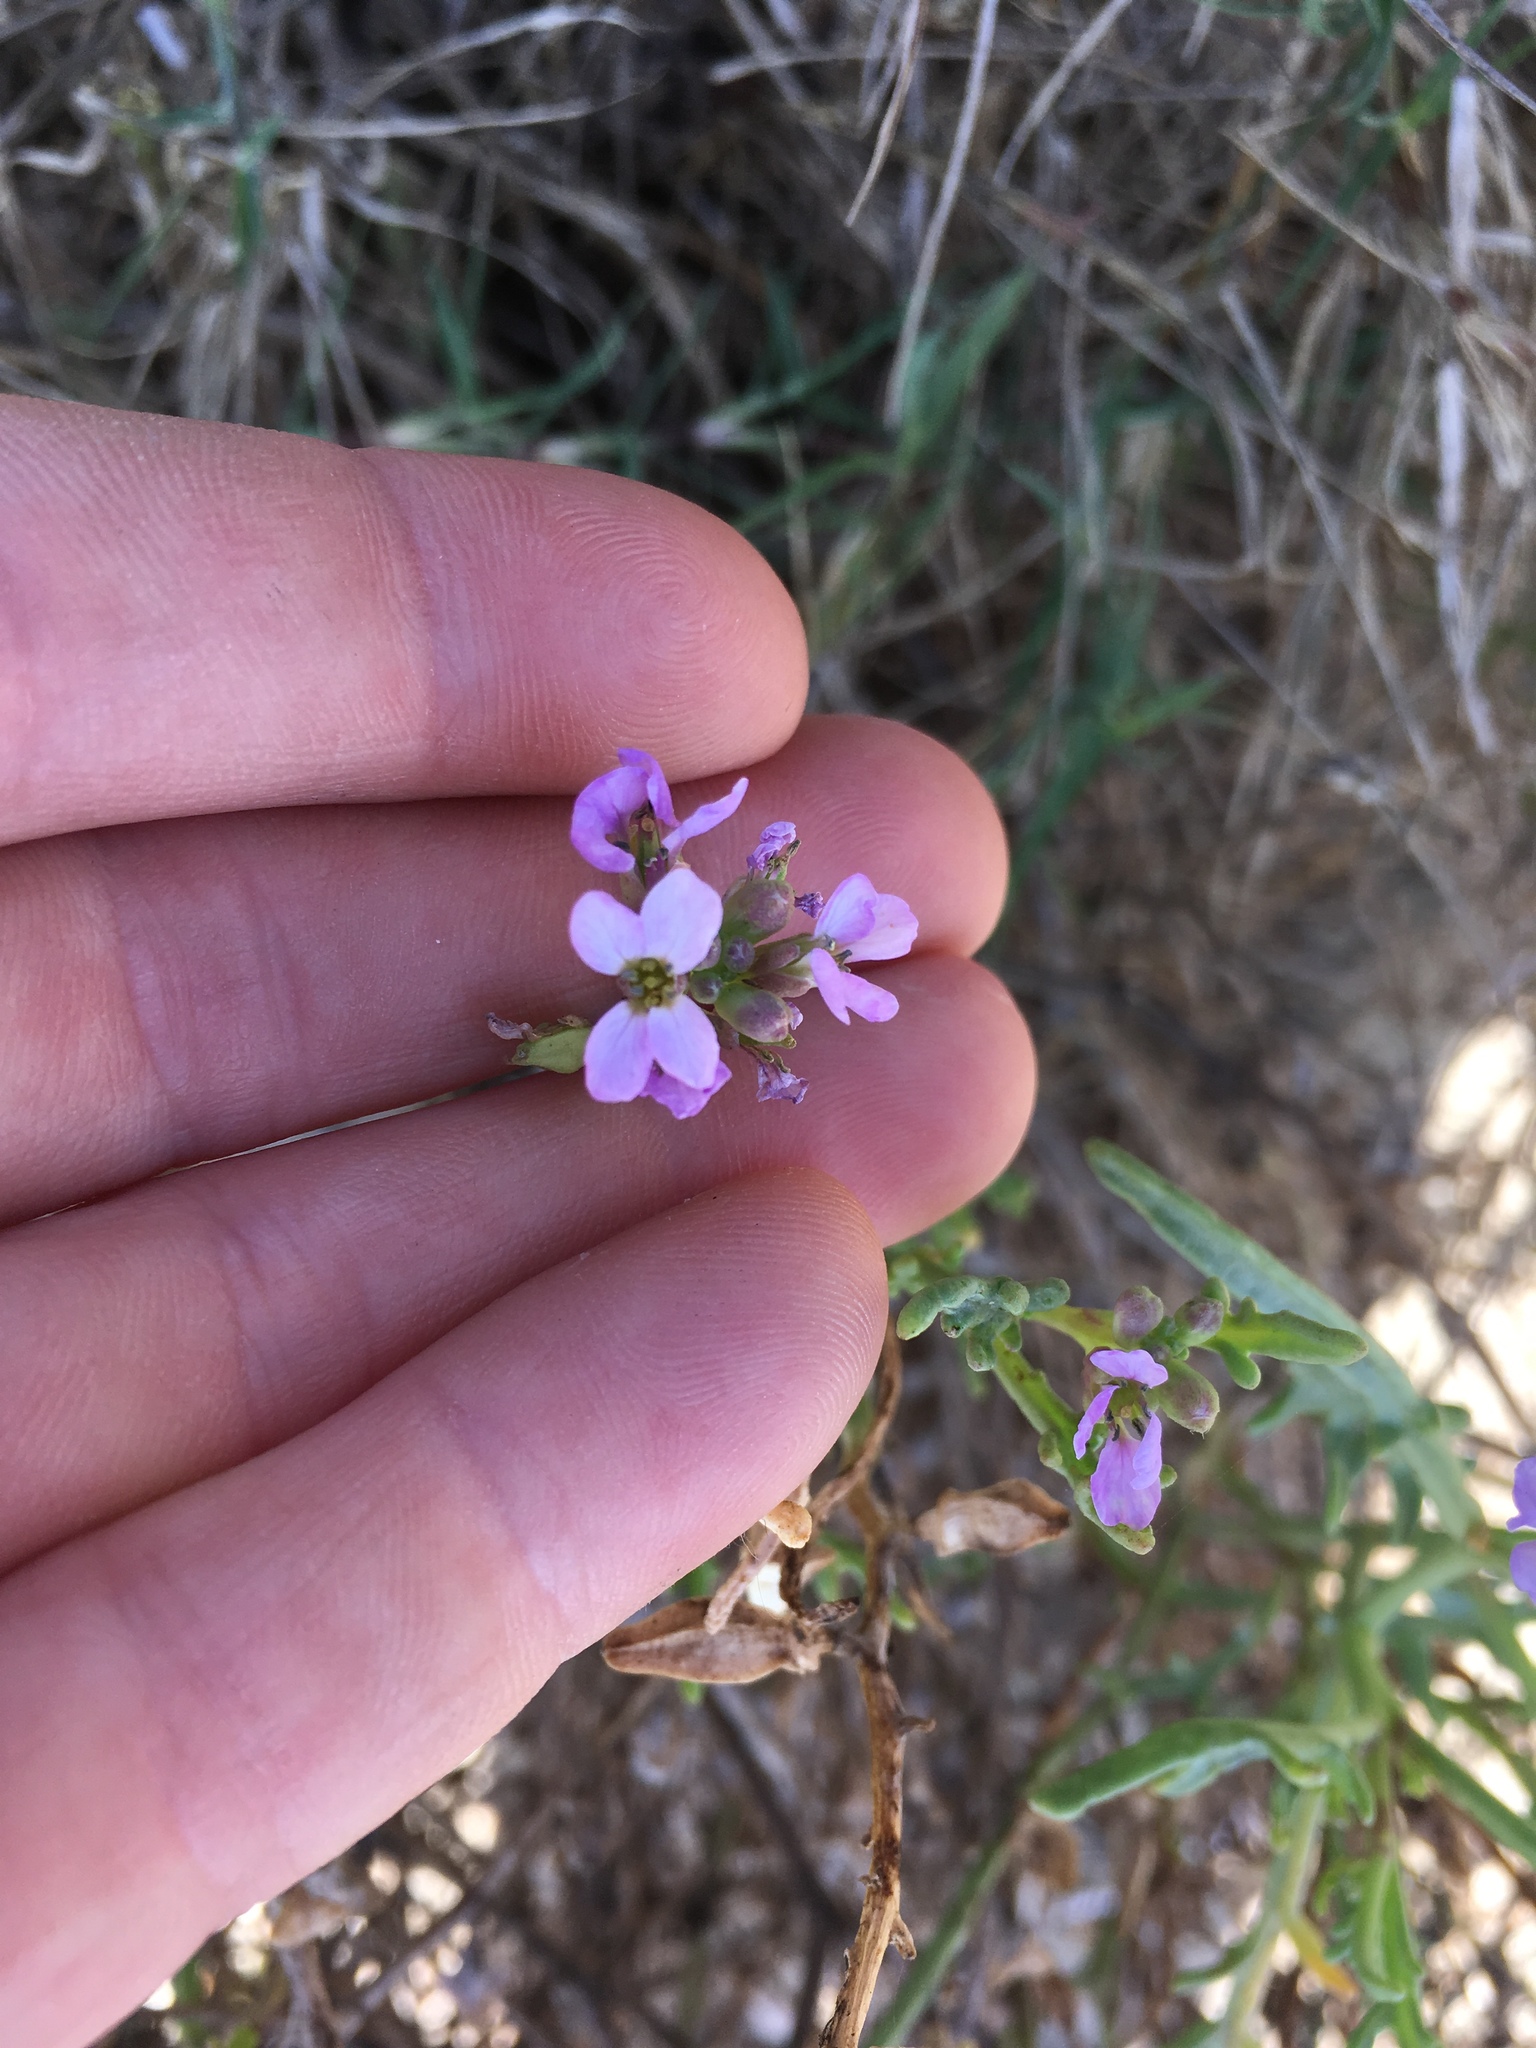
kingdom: Plantae
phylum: Tracheophyta
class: Magnoliopsida
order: Brassicales
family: Brassicaceae
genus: Cakile
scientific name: Cakile maritima
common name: Sea rocket
